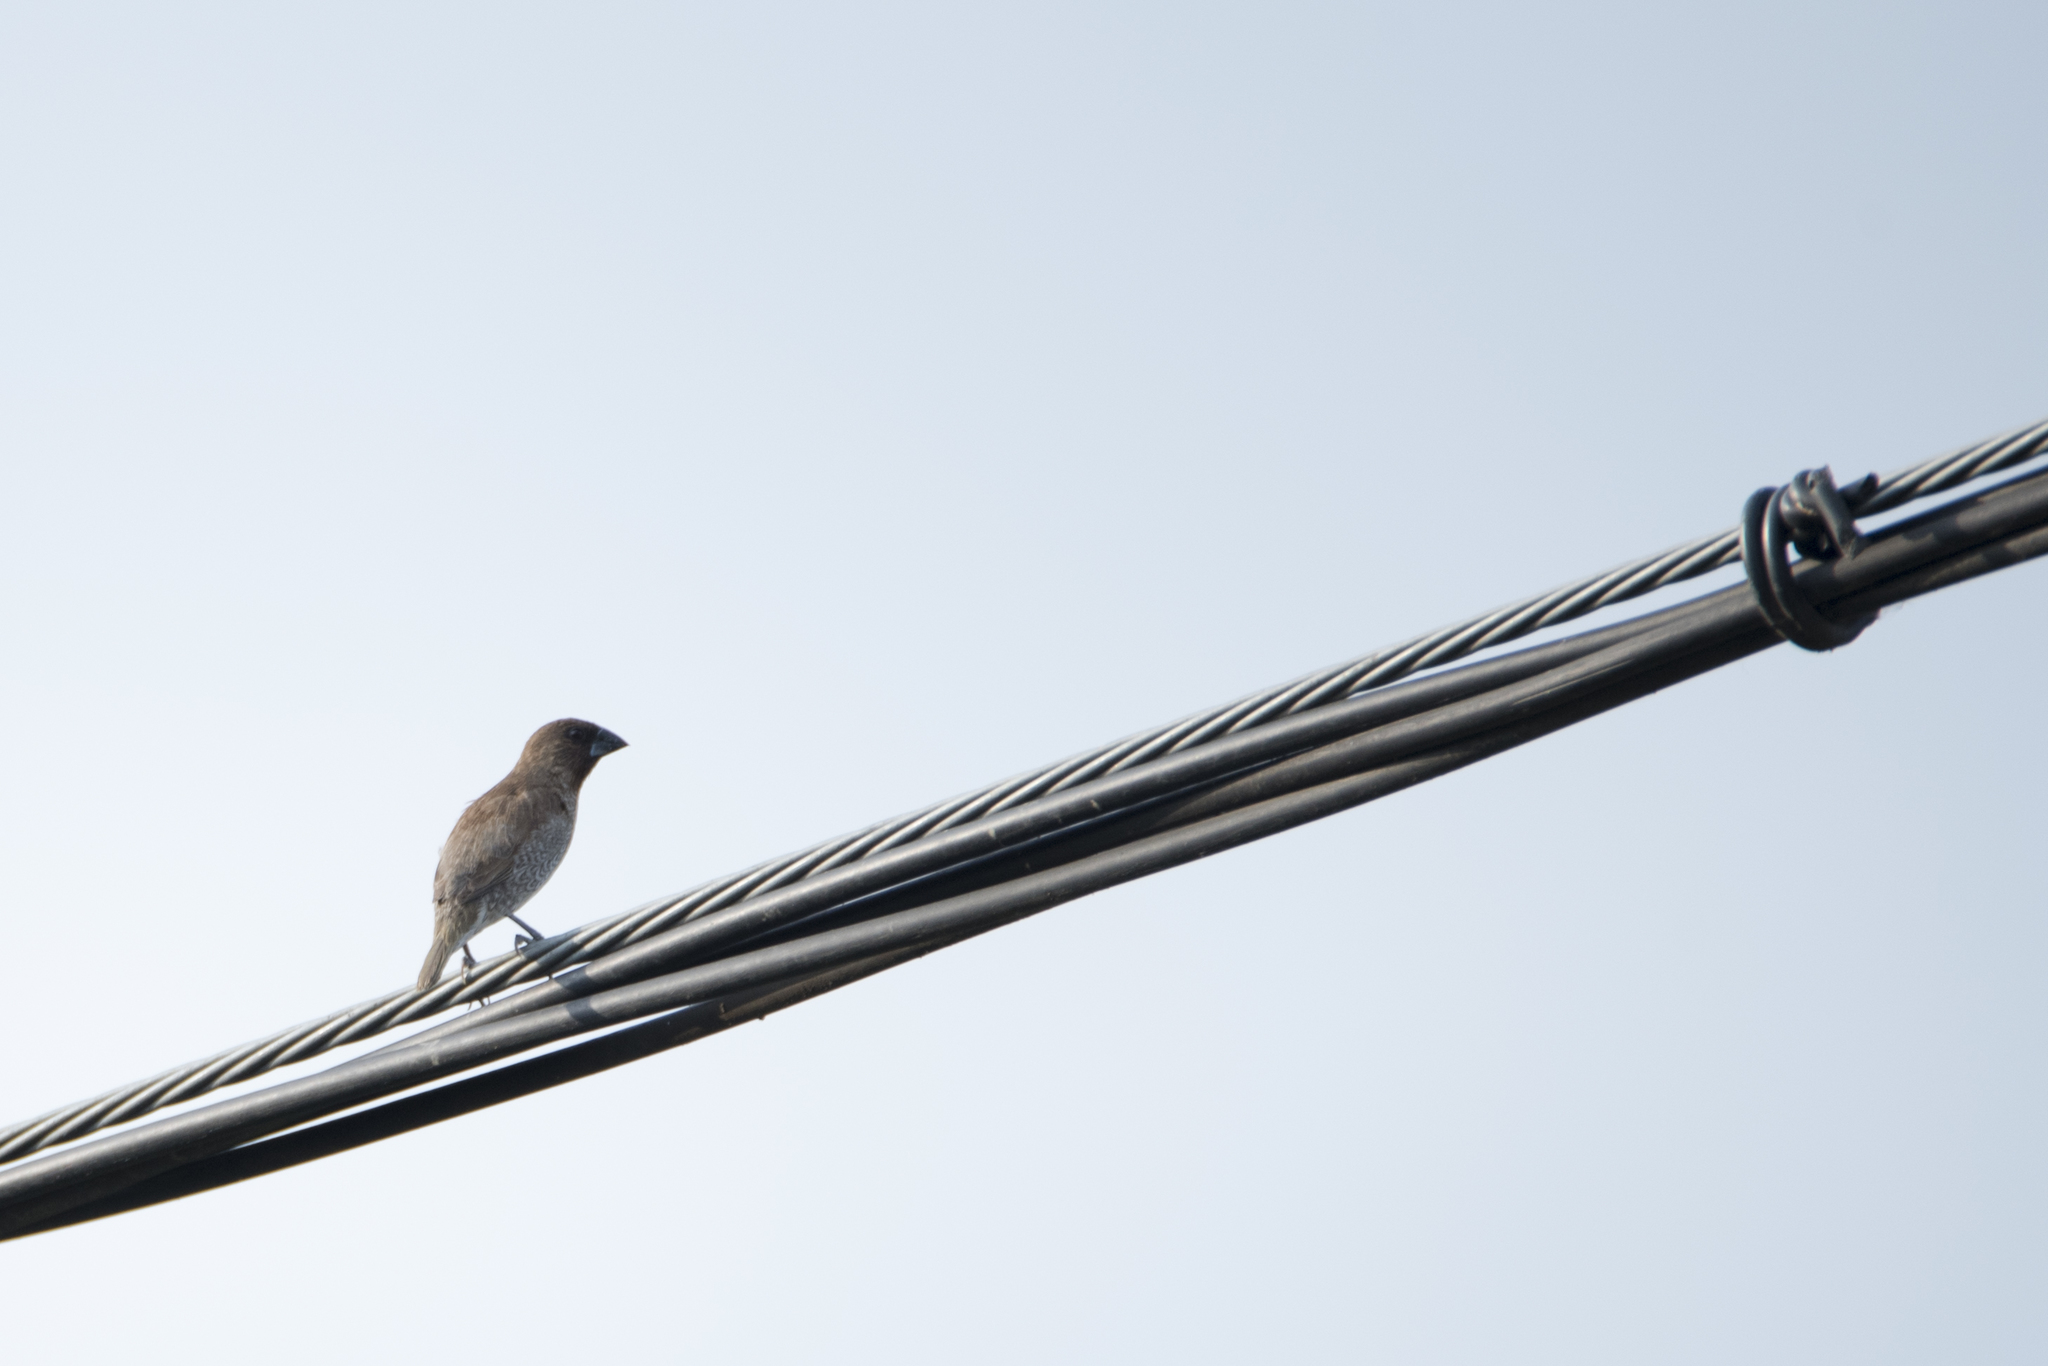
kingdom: Animalia
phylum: Chordata
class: Aves
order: Passeriformes
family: Estrildidae
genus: Lonchura
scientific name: Lonchura punctulata
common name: Scaly-breasted munia
